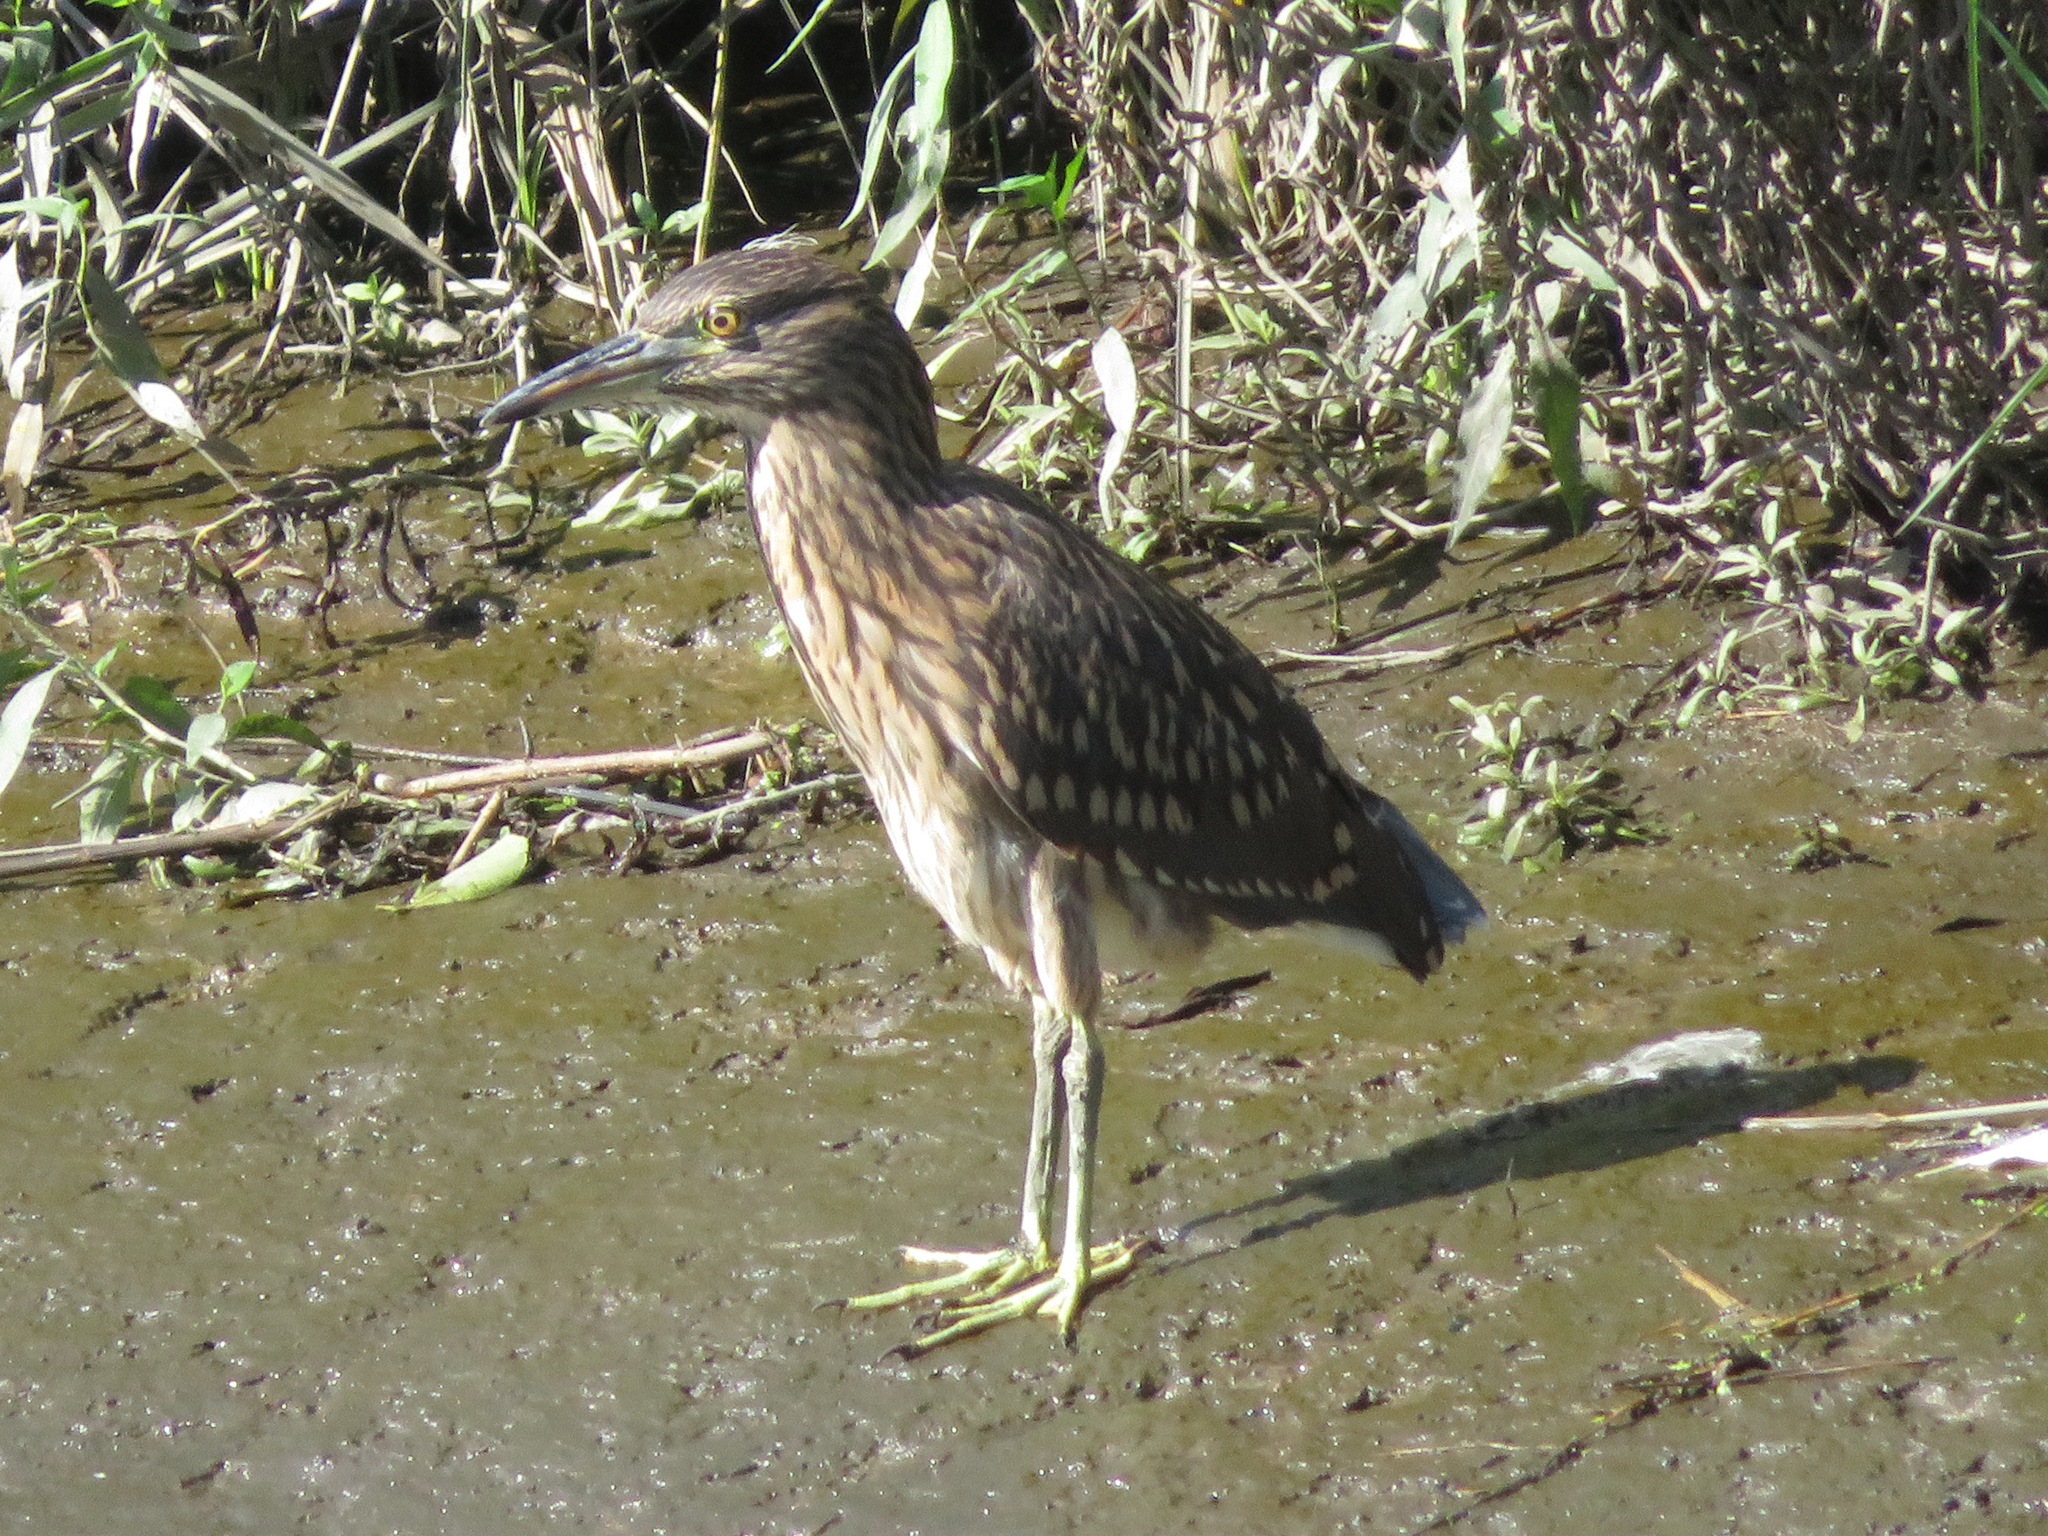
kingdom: Animalia
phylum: Chordata
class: Aves
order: Pelecaniformes
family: Ardeidae
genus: Nycticorax
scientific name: Nycticorax nycticorax
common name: Black-crowned night heron
